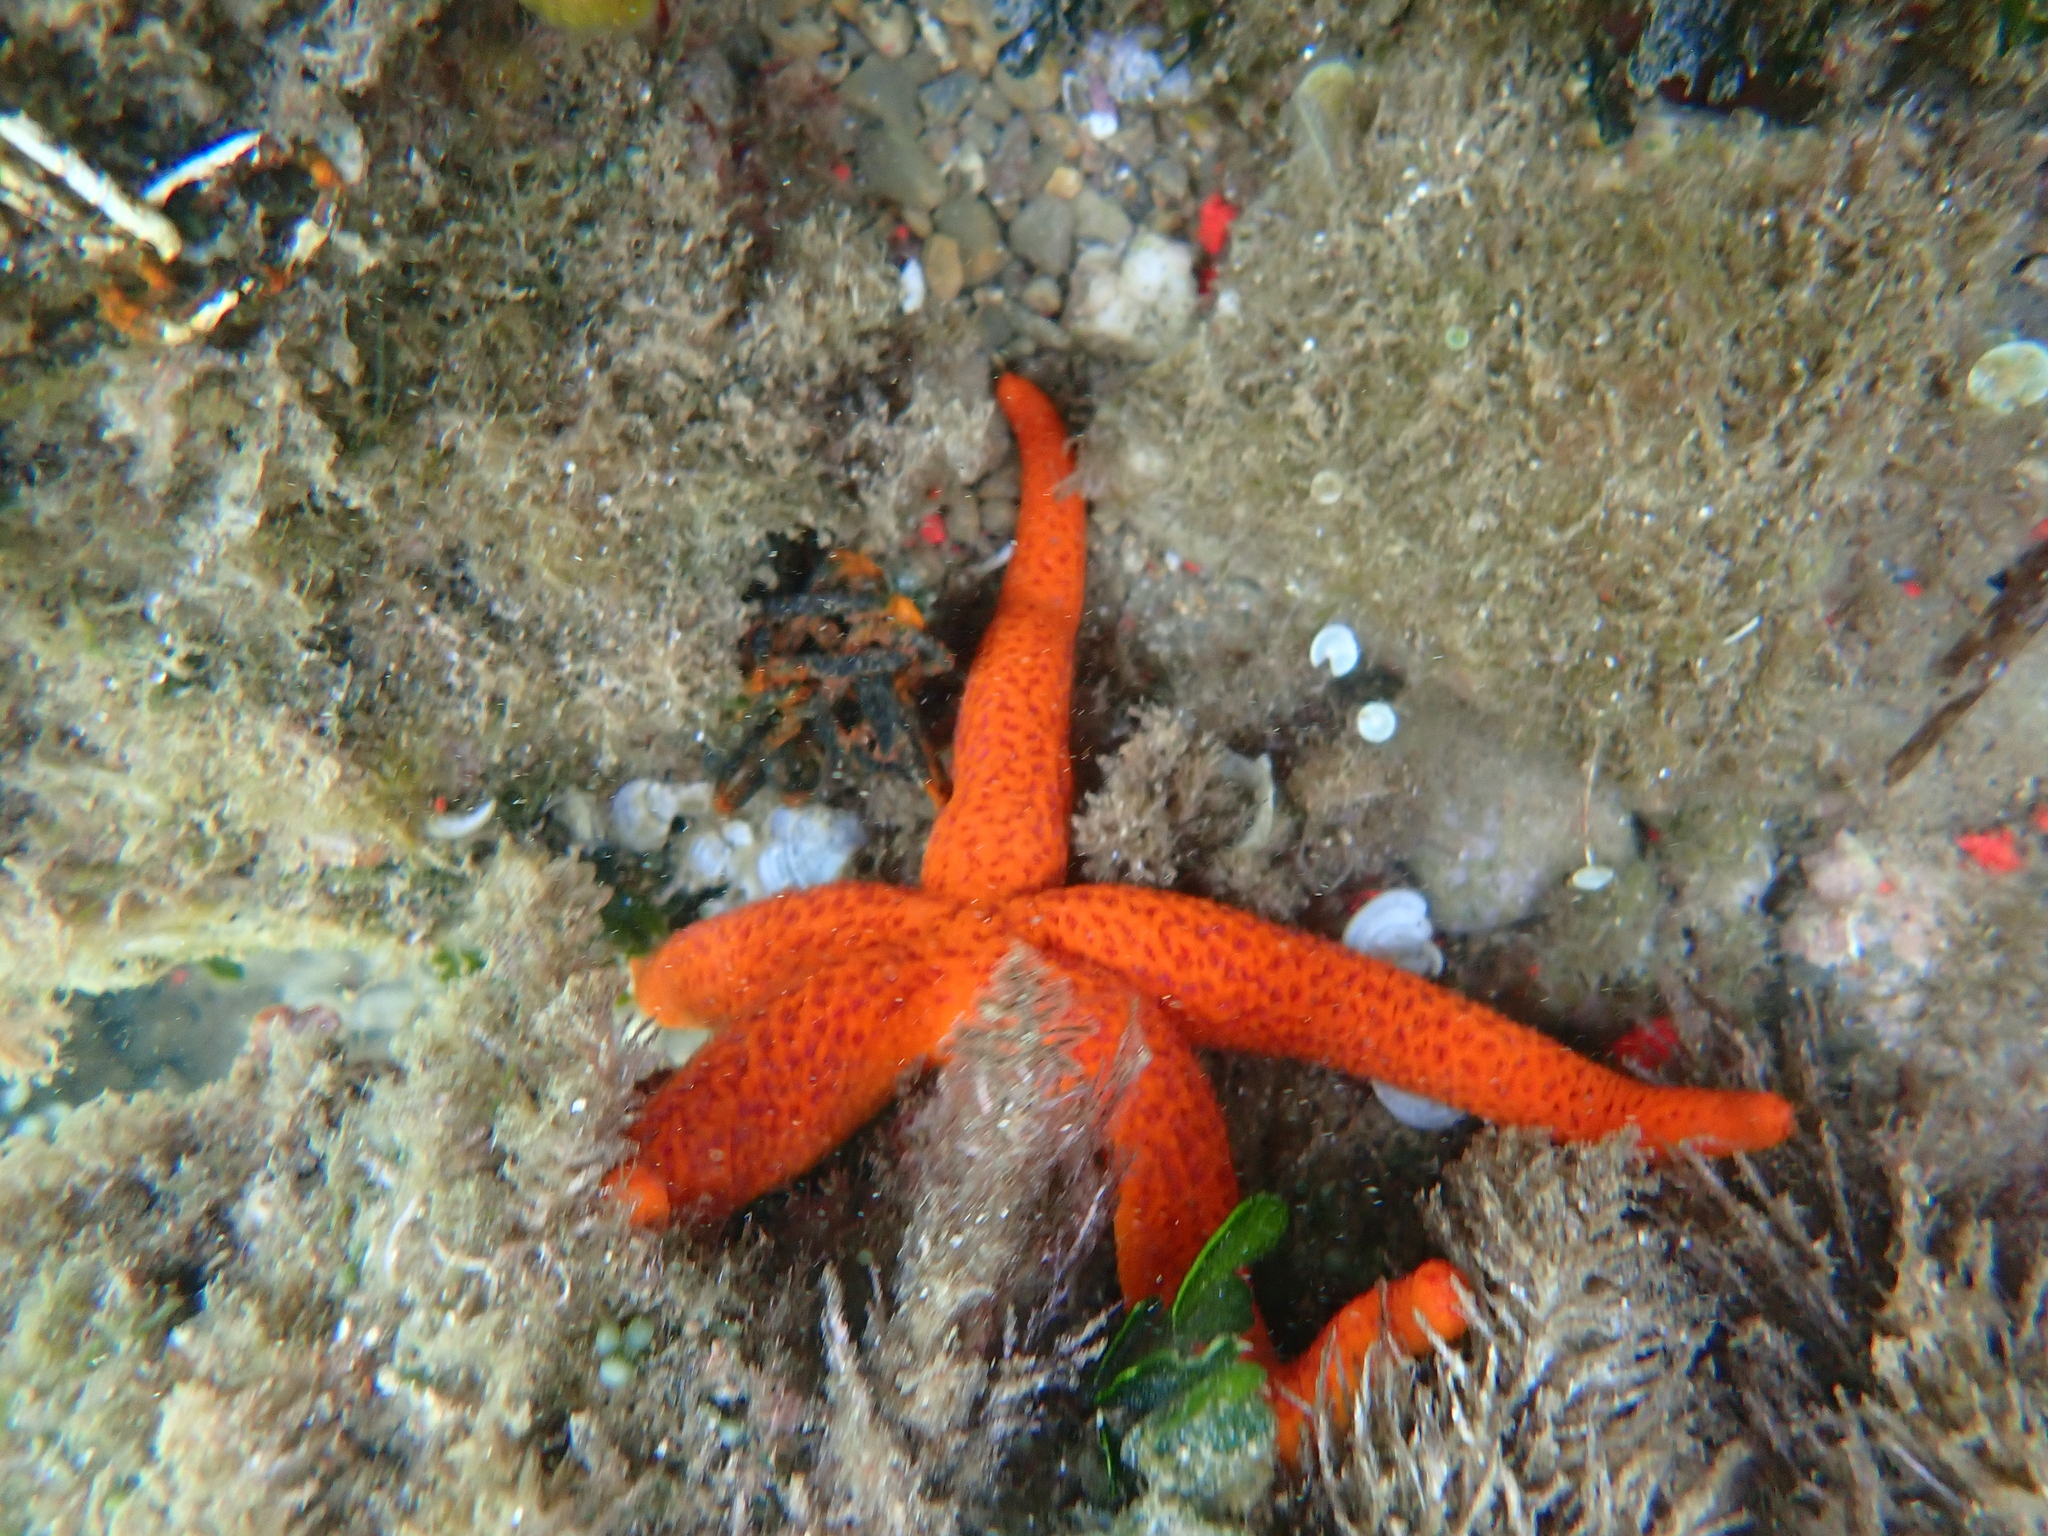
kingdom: Animalia
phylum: Echinodermata
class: Asteroidea
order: Spinulosida
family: Echinasteridae
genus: Echinaster
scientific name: Echinaster sepositus
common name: Red starfish
